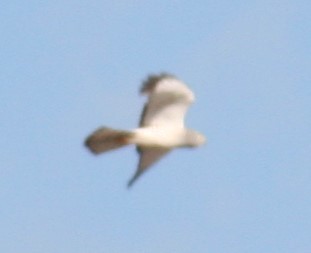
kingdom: Animalia
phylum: Chordata
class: Aves
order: Accipitriformes
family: Accipitridae
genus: Circus
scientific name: Circus cyaneus
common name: Hen harrier
